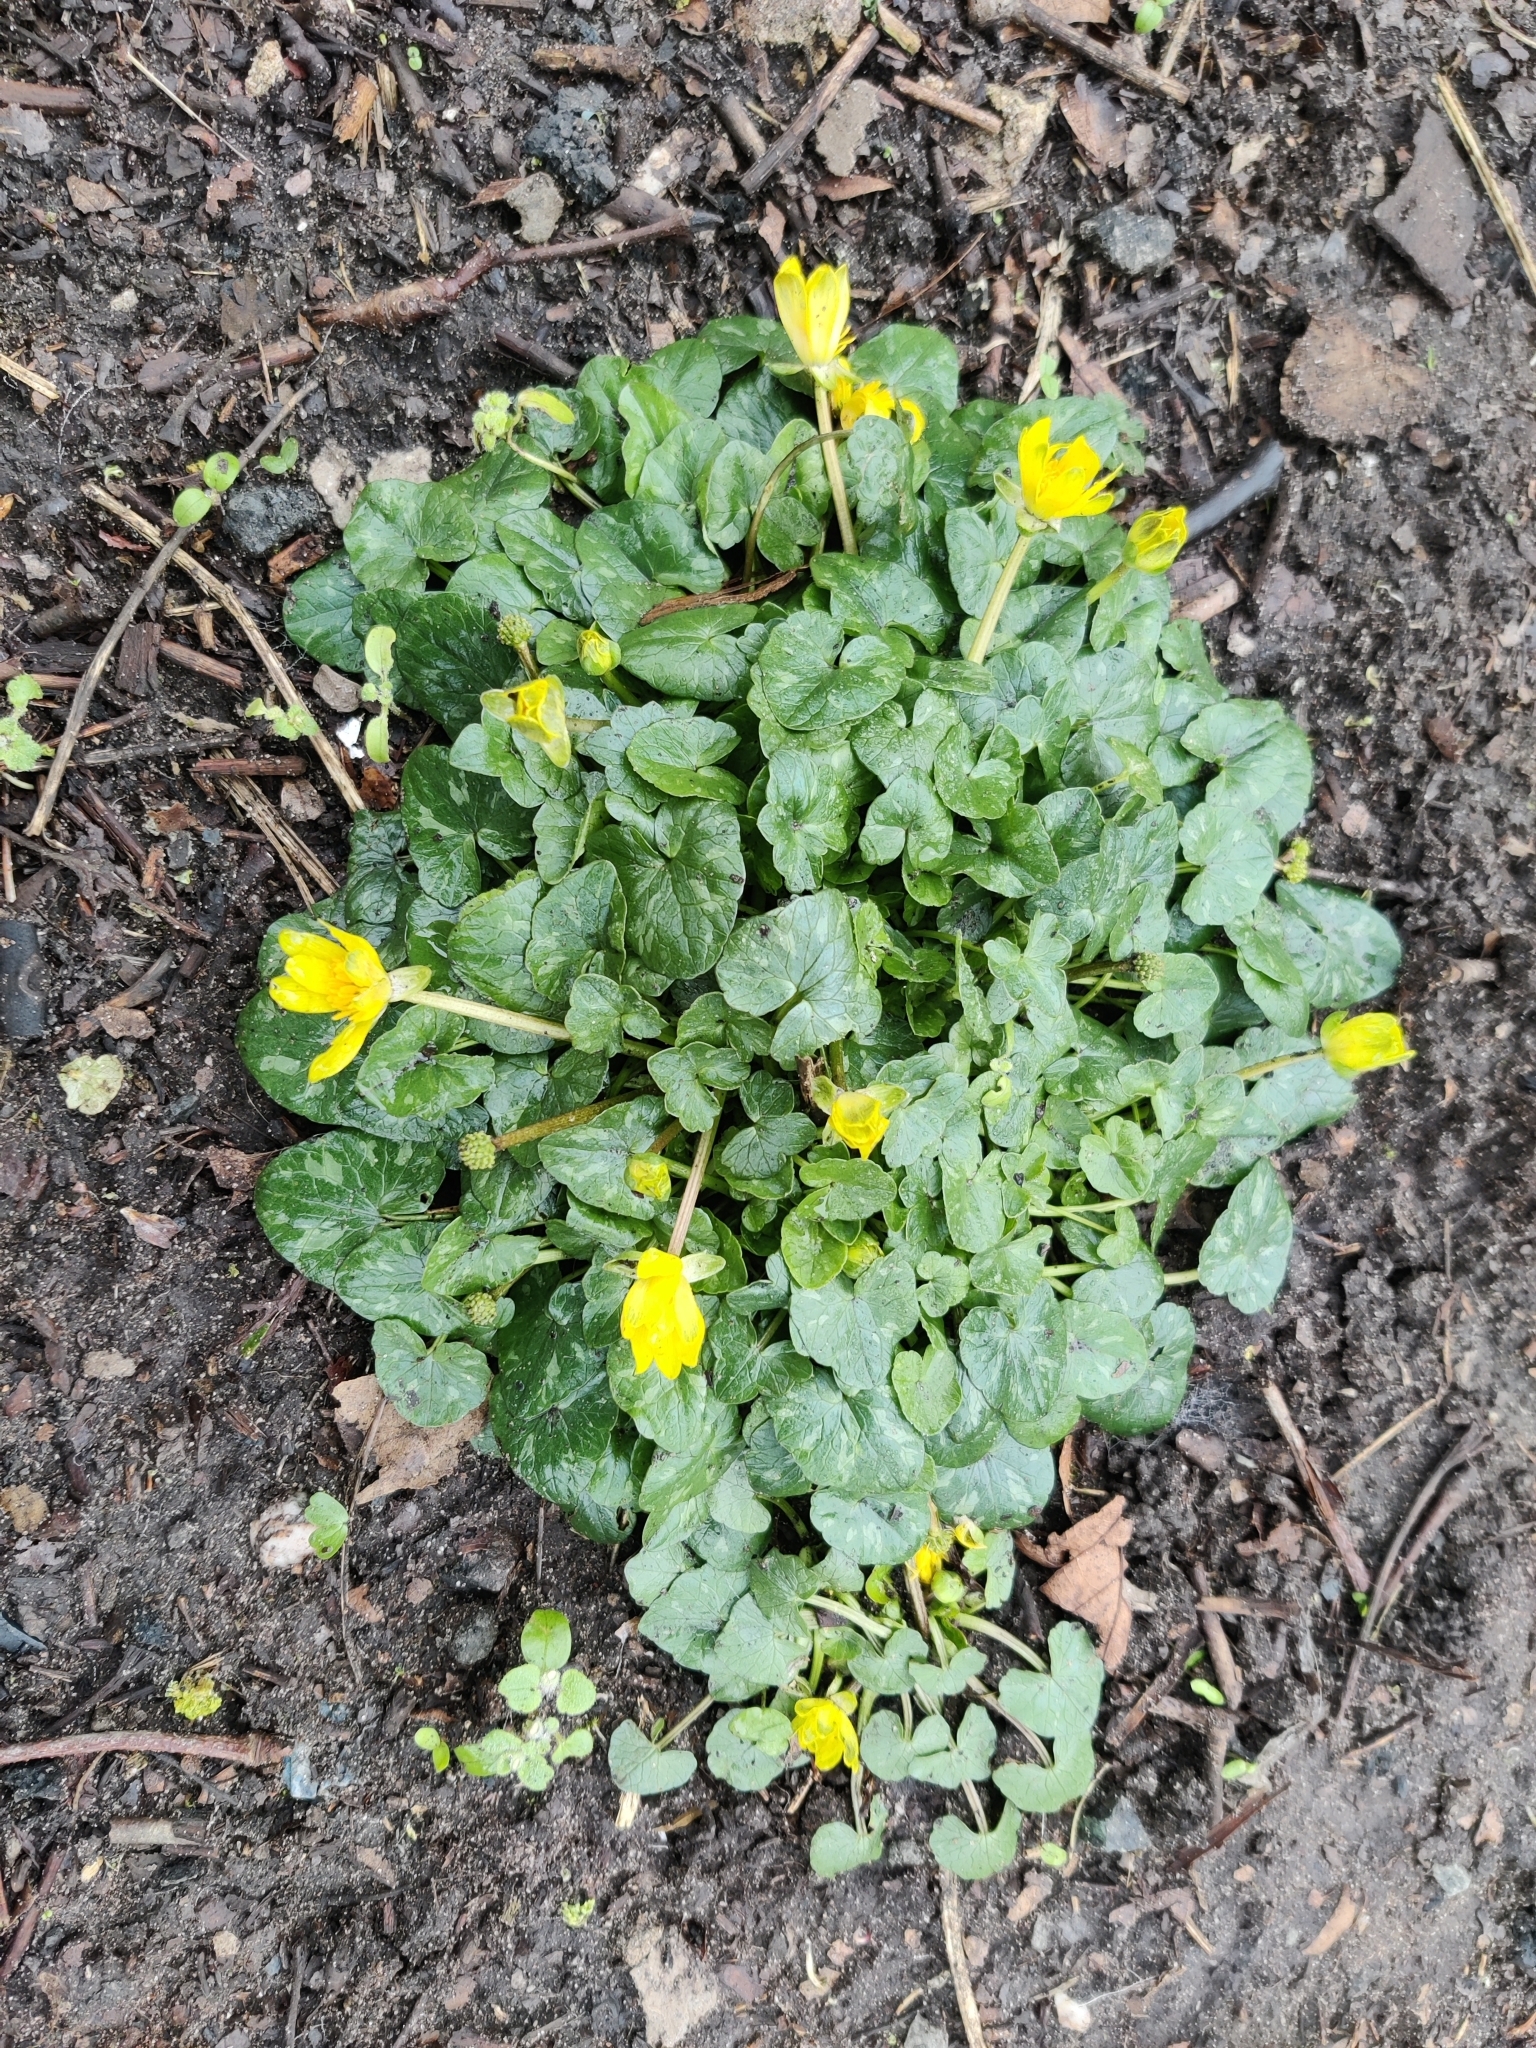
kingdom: Plantae
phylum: Tracheophyta
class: Magnoliopsida
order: Ranunculales
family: Ranunculaceae
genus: Ficaria
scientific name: Ficaria verna
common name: Lesser celandine
